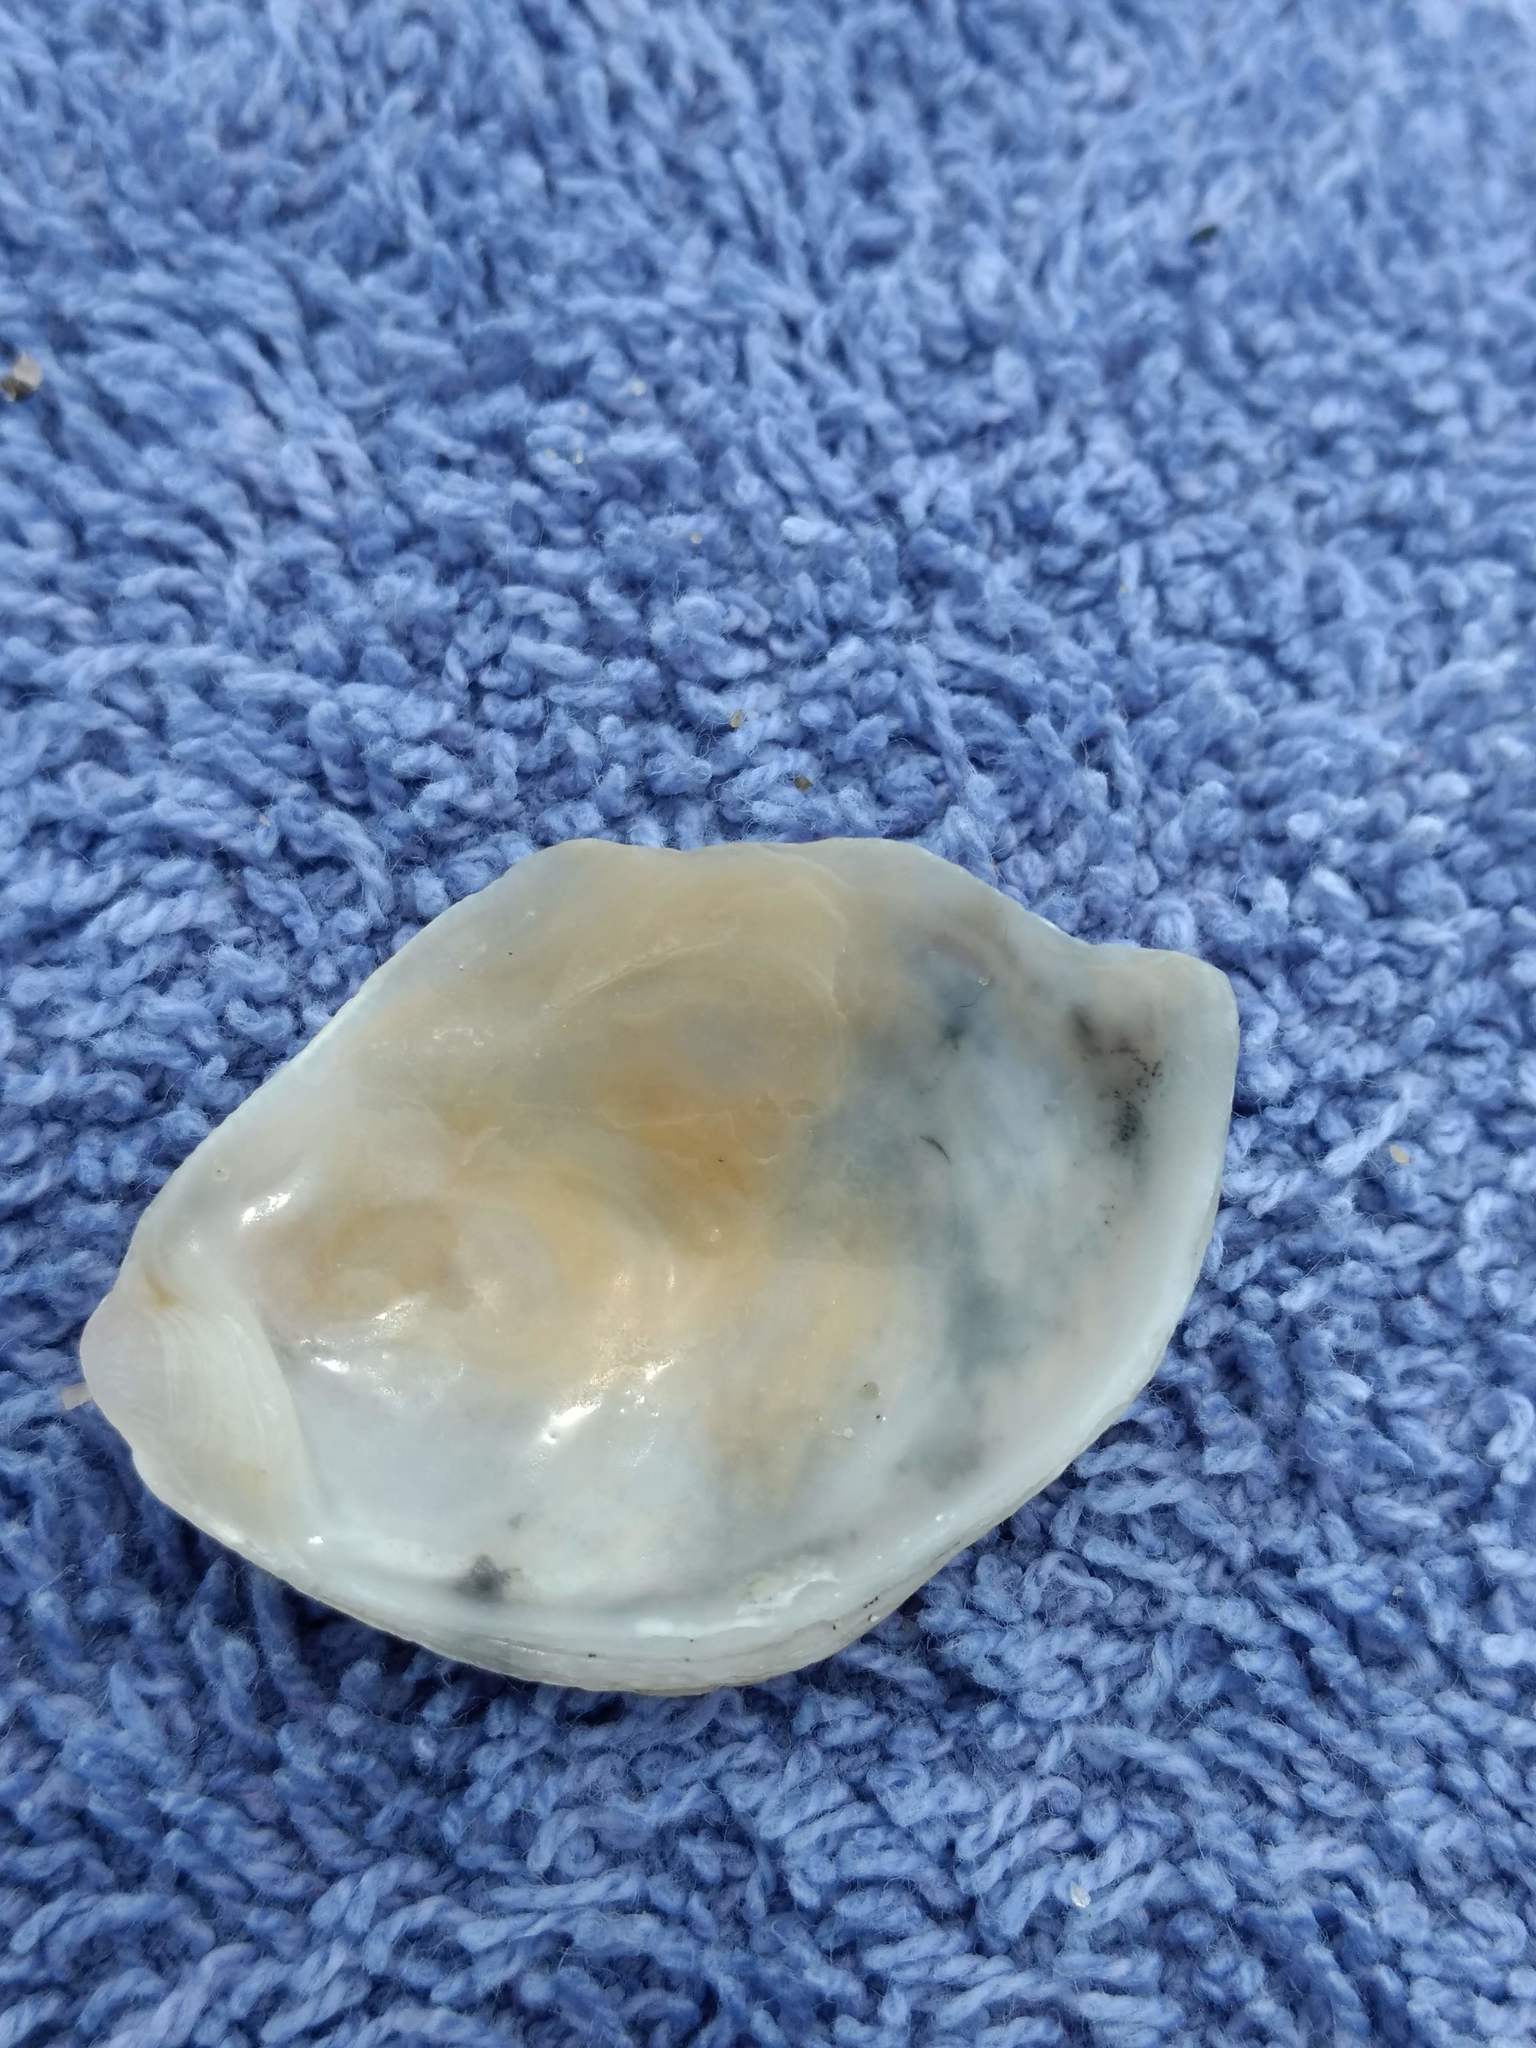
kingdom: Animalia
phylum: Mollusca
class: Bivalvia
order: Ostreida
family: Ostreidae
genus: Ostrea
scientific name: Ostrea lurida
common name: Olympia flat oyster
